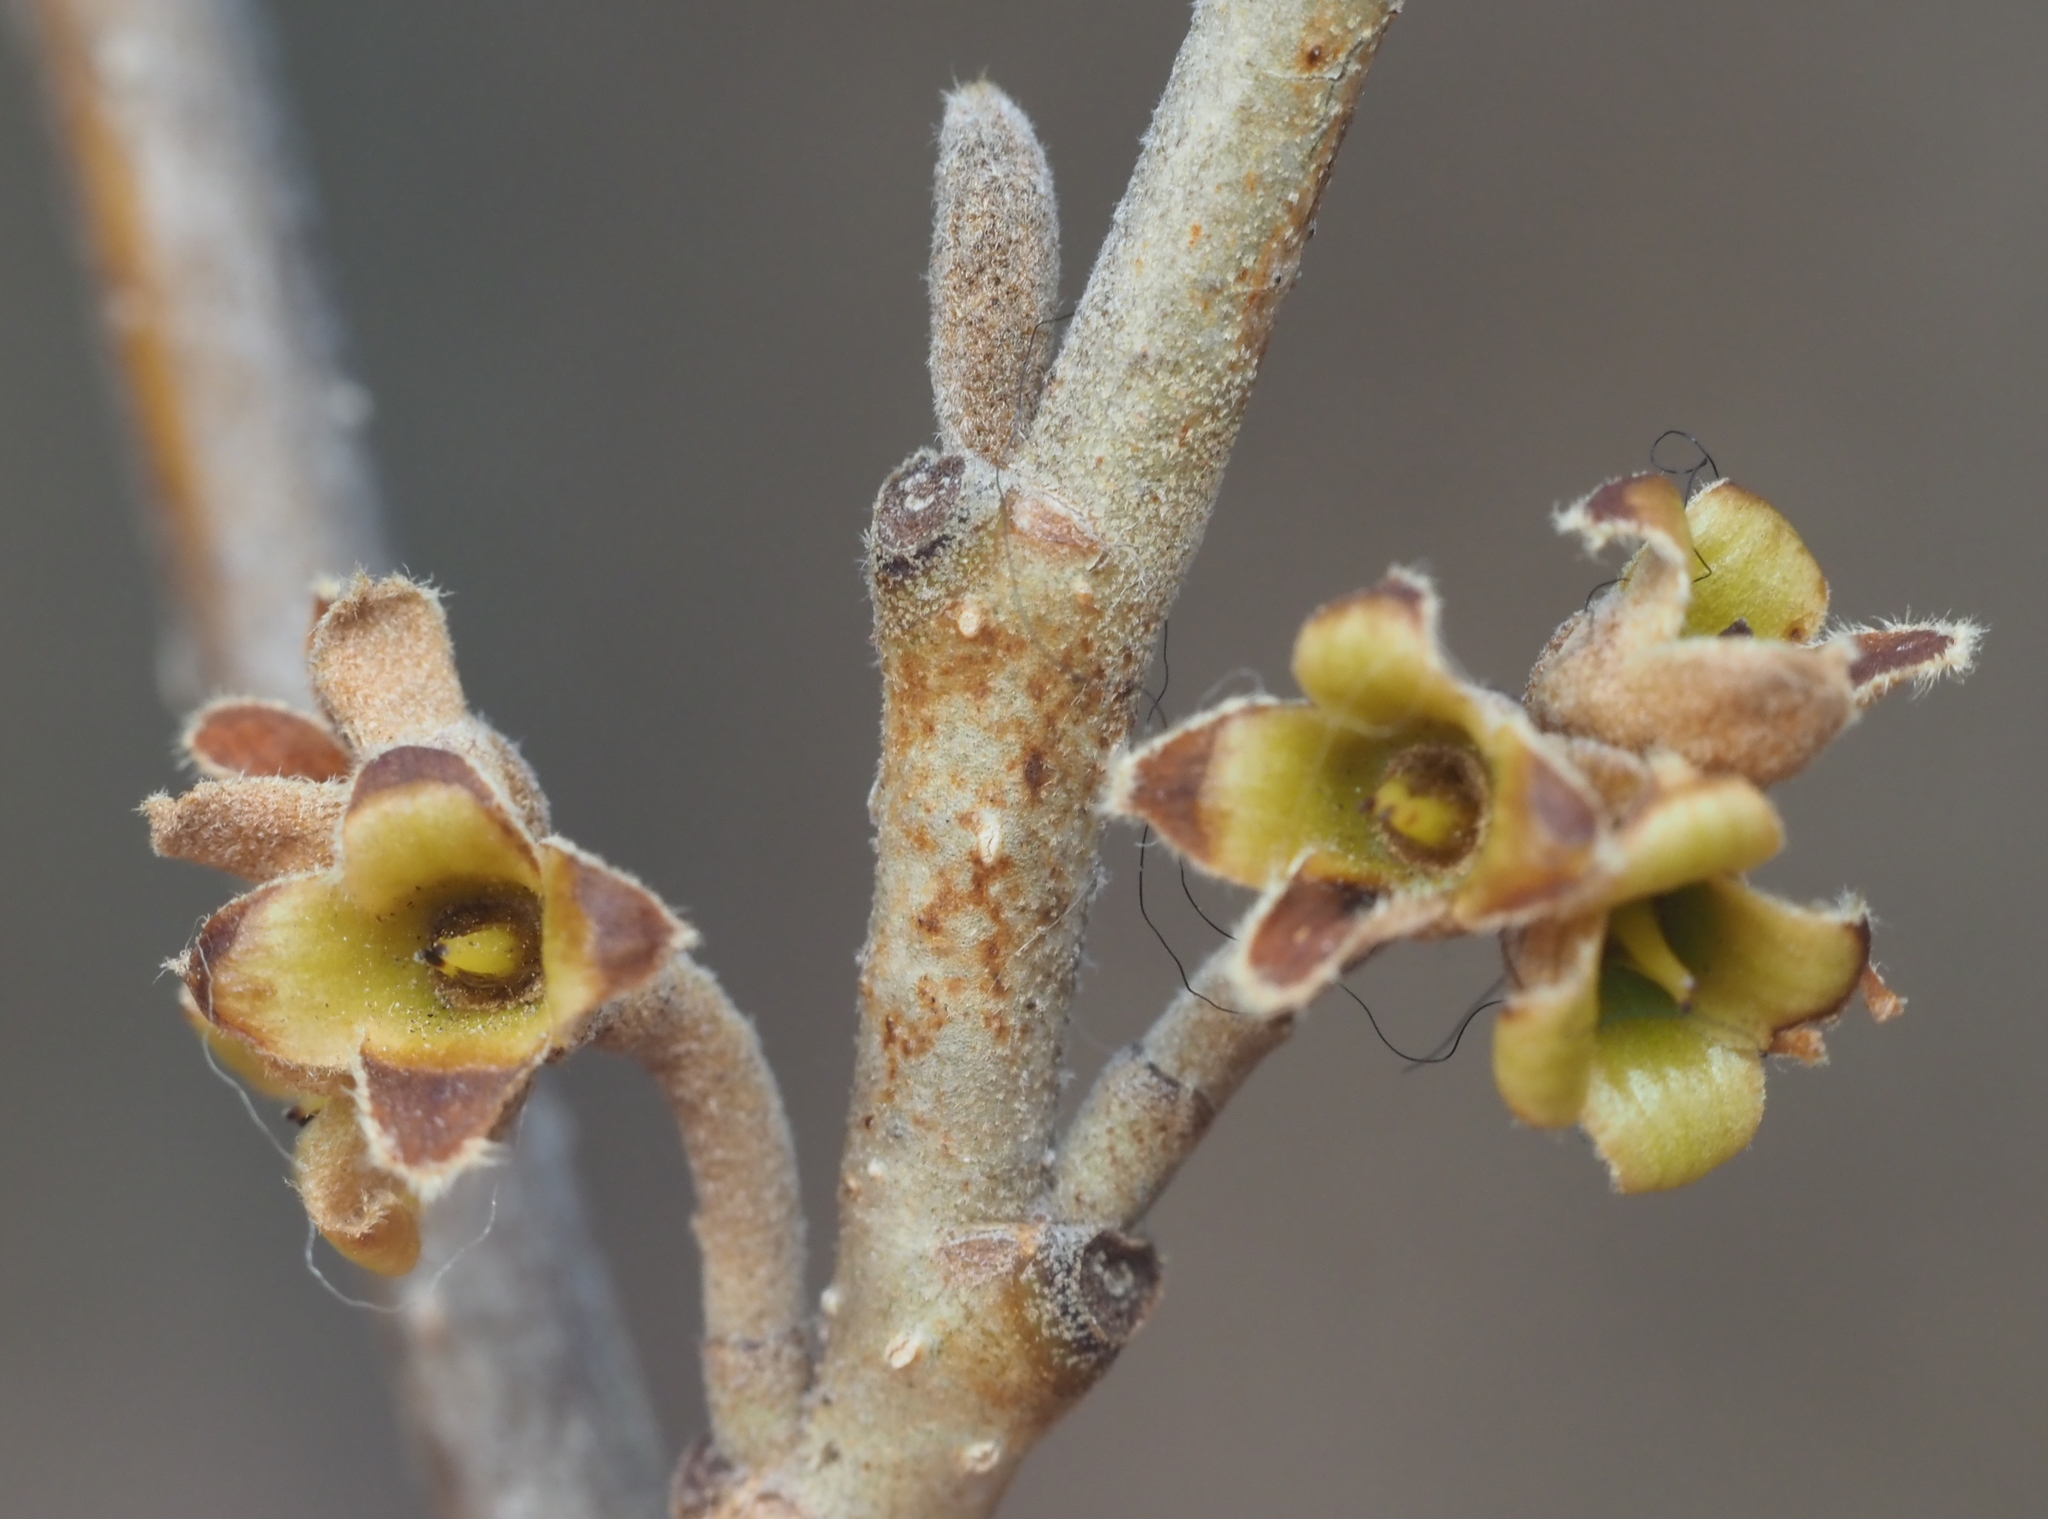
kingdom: Plantae
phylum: Tracheophyta
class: Magnoliopsida
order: Saxifragales
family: Hamamelidaceae
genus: Hamamelis
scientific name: Hamamelis virginiana
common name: Witch-hazel
